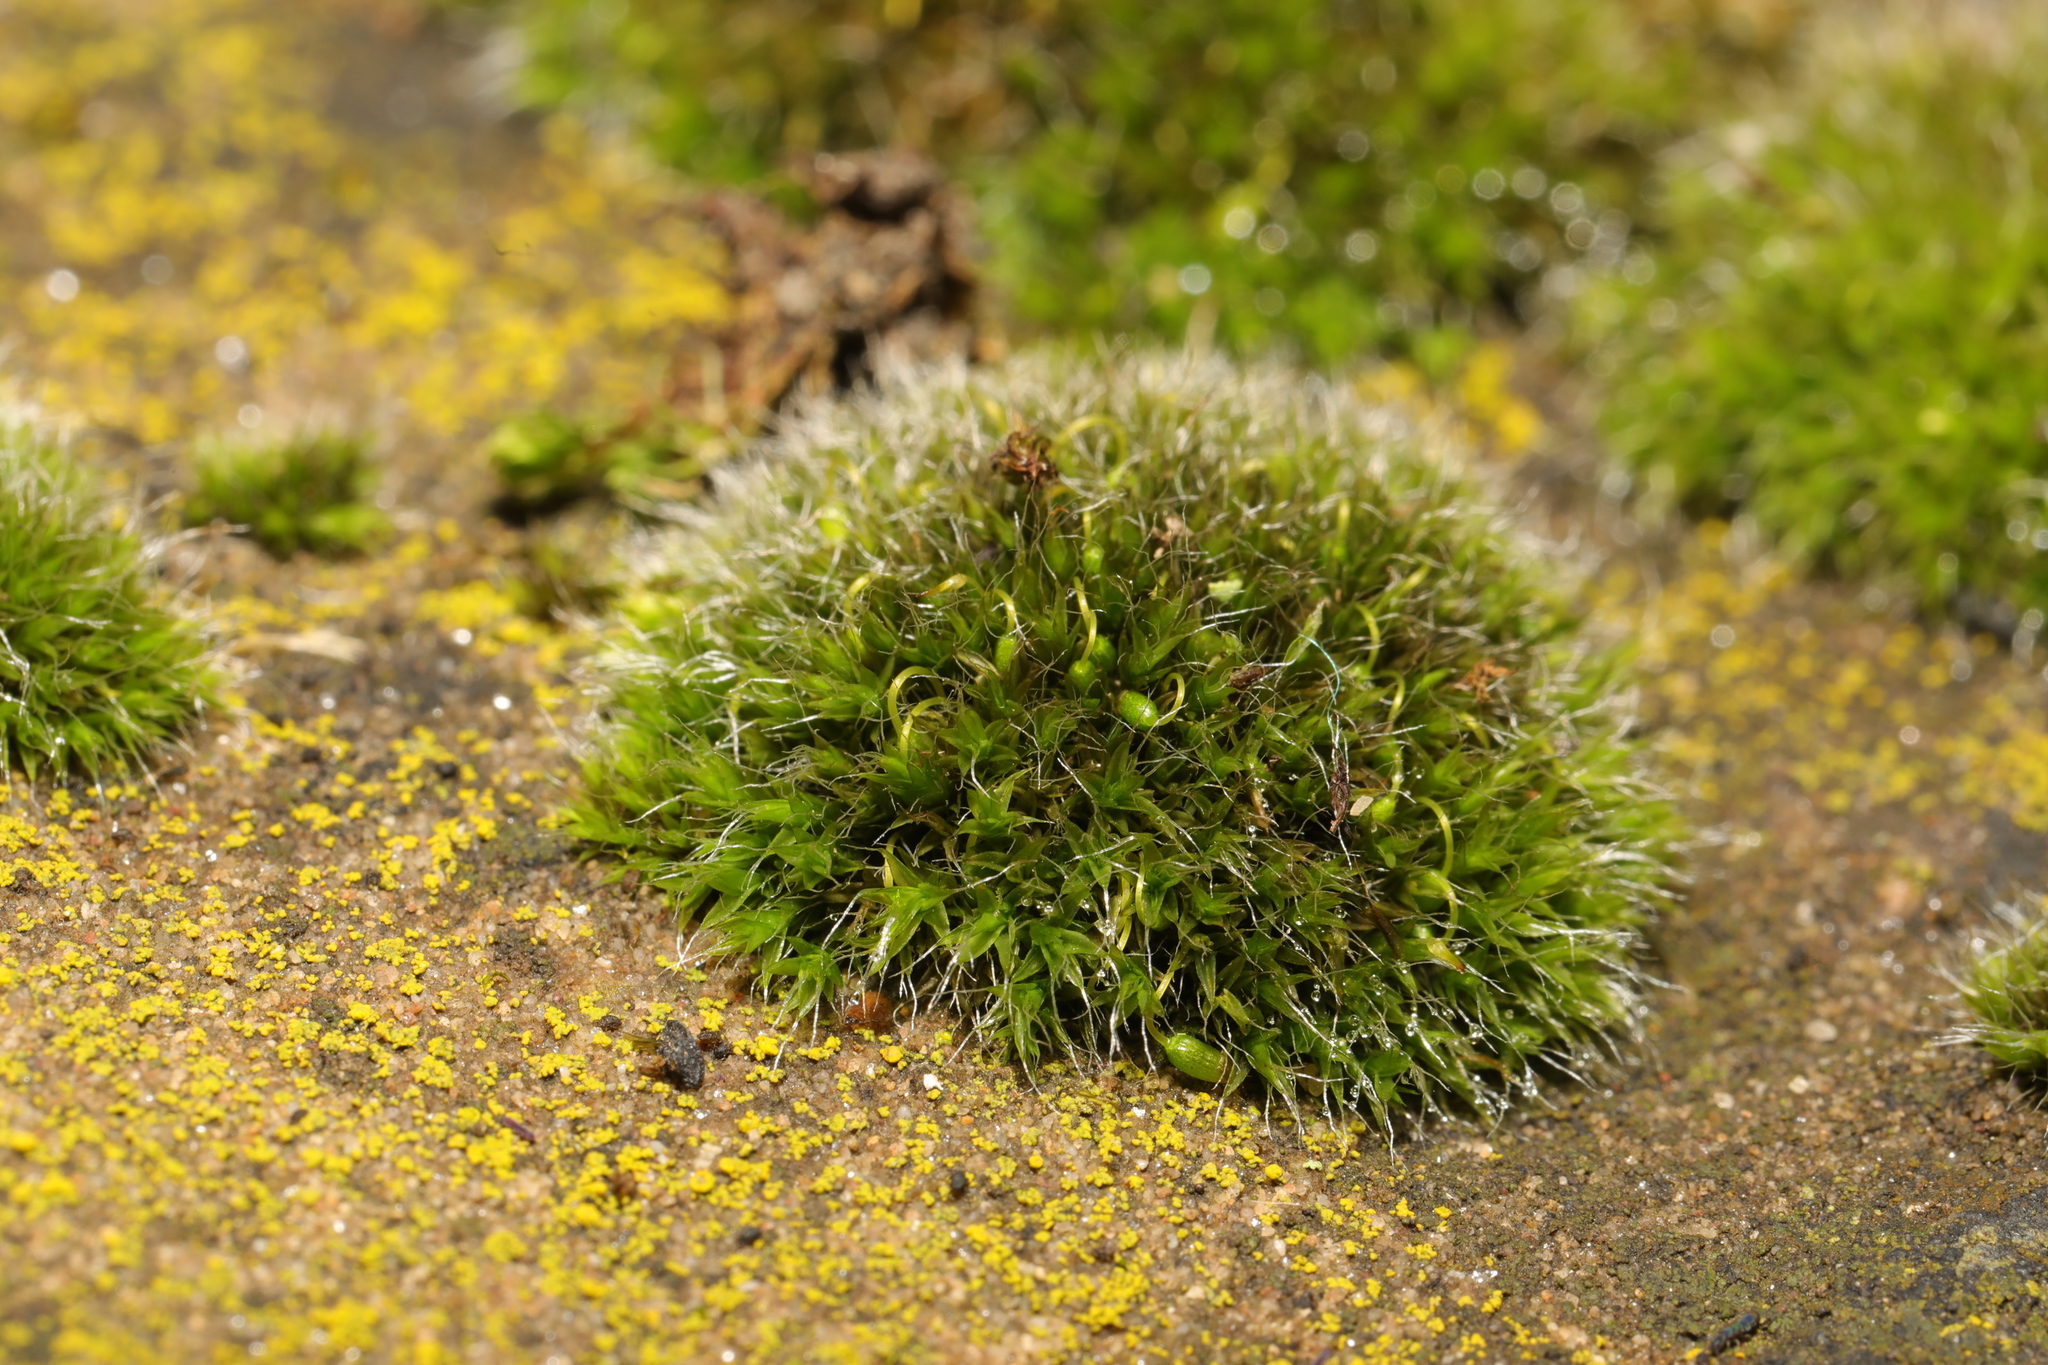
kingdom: Plantae
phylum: Bryophyta
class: Bryopsida
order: Grimmiales
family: Grimmiaceae
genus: Grimmia
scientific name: Grimmia pulvinata
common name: Grey-cushioned grimmia
